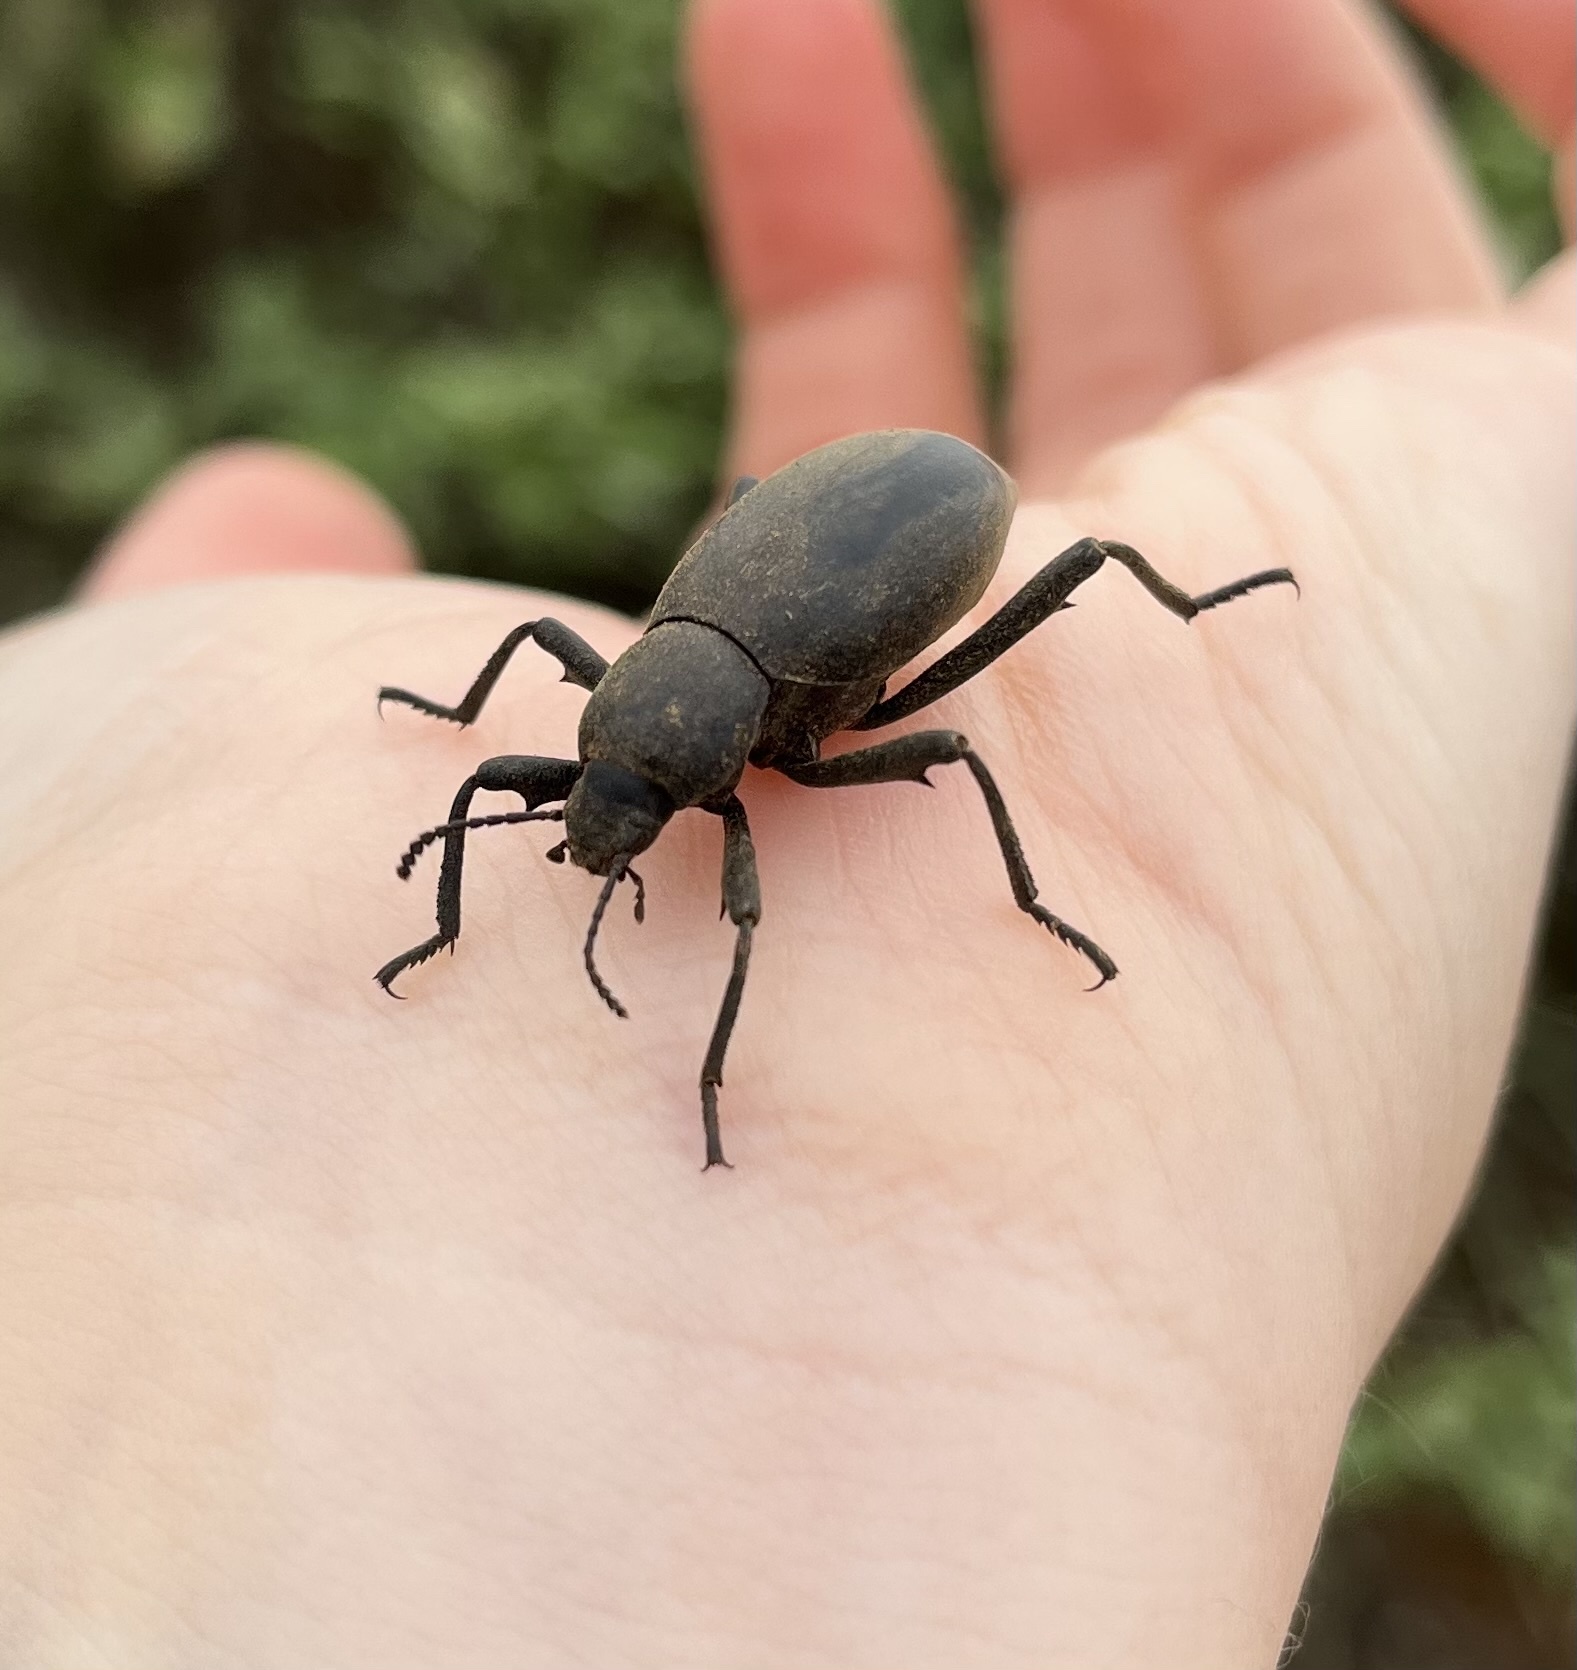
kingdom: Animalia
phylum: Arthropoda
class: Insecta
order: Coleoptera
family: Tenebrionidae
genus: Eleodes
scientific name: Eleodes armata
